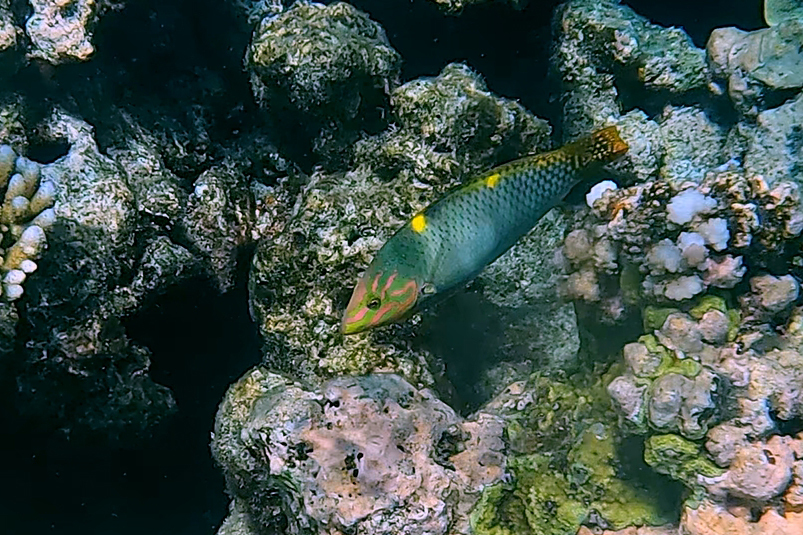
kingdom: Animalia
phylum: Chordata
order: Perciformes
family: Labridae
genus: Halichoeres
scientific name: Halichoeres hortulanus
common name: Checkerboard wrasse
